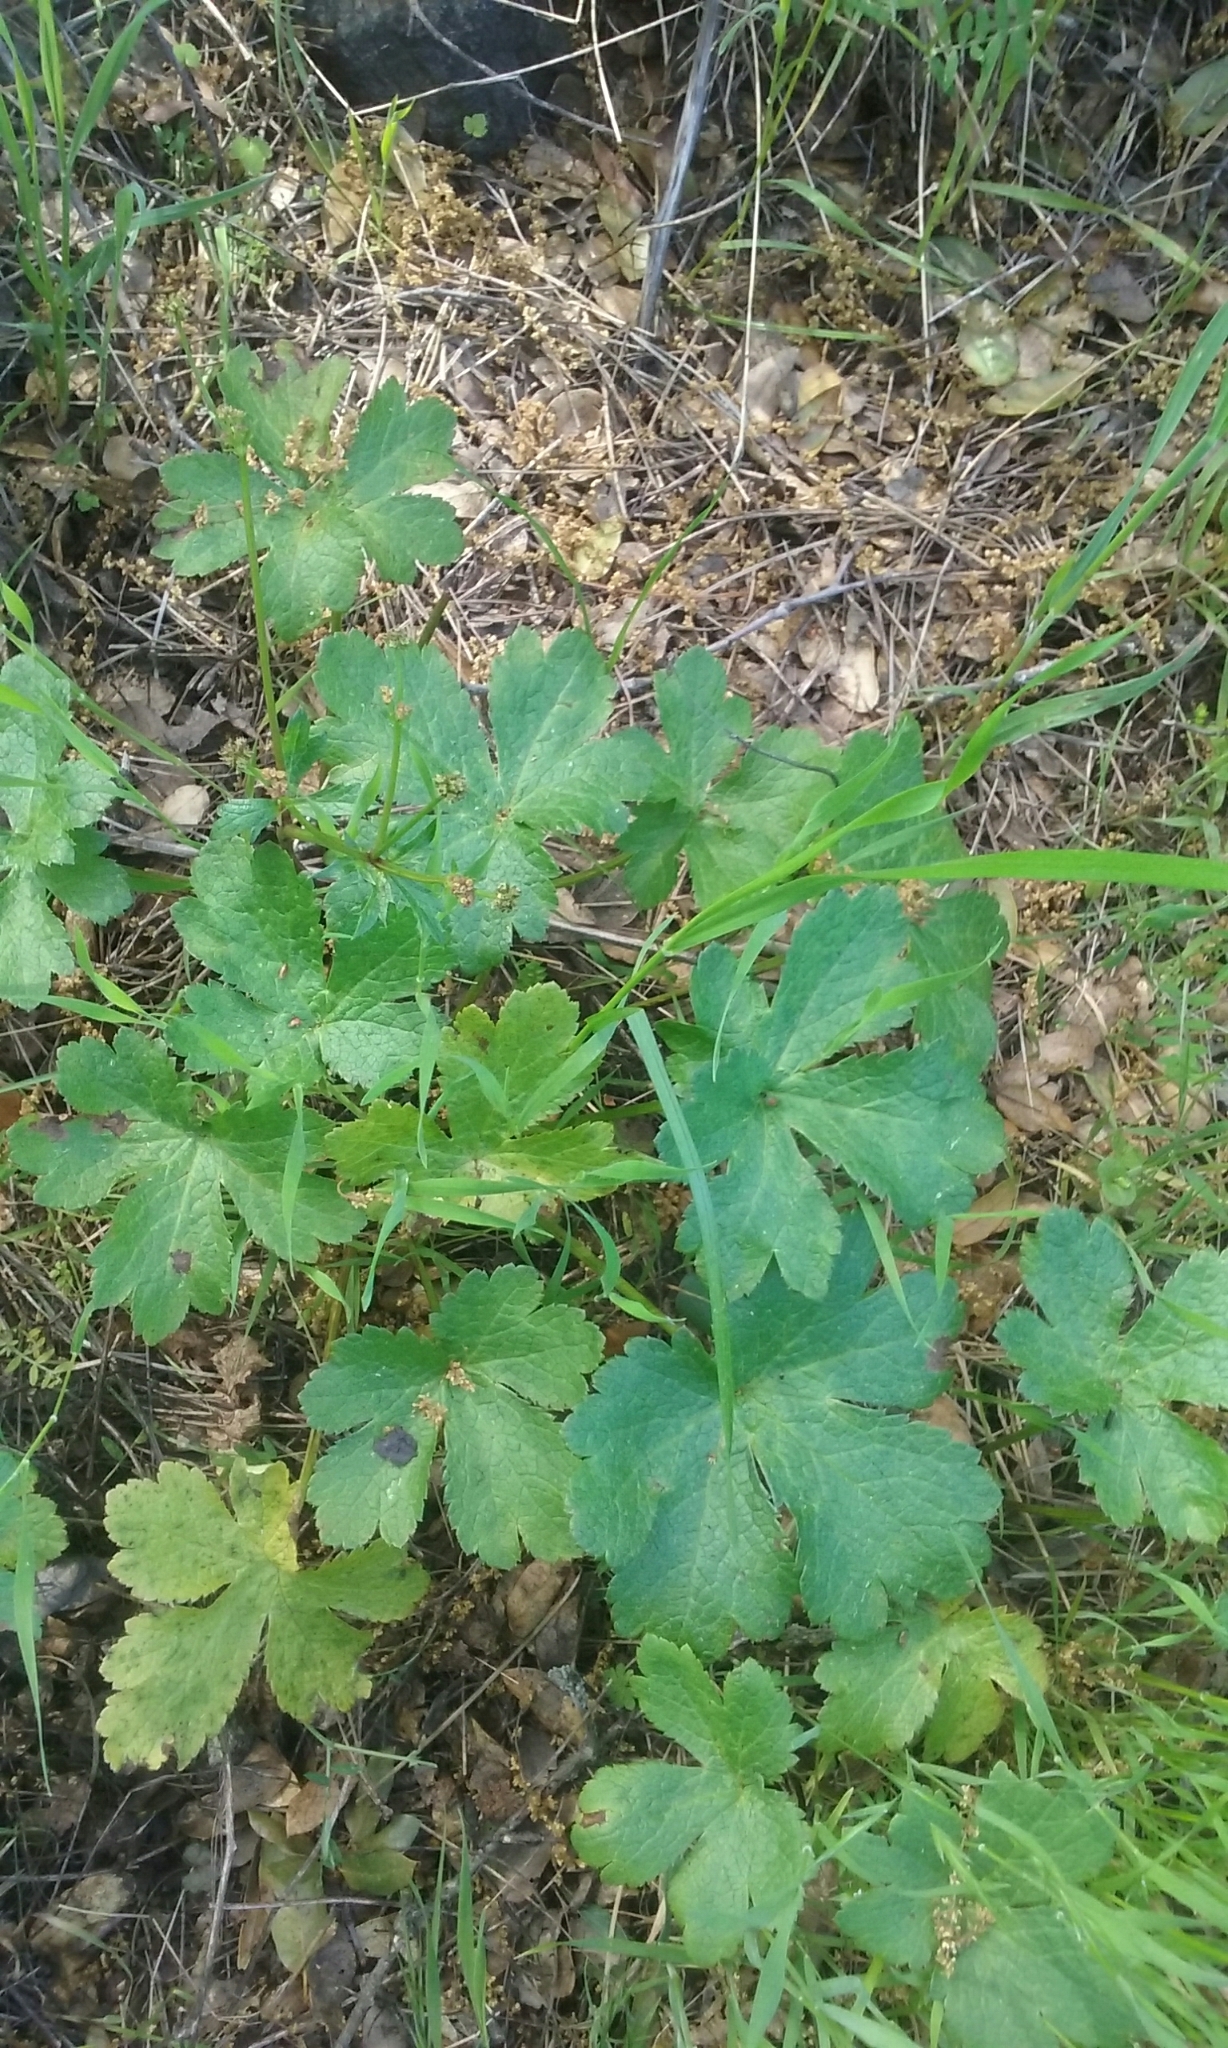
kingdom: Plantae
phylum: Tracheophyta
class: Magnoliopsida
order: Apiales
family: Apiaceae
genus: Sanicula
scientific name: Sanicula crassicaulis
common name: Western snakeroot
